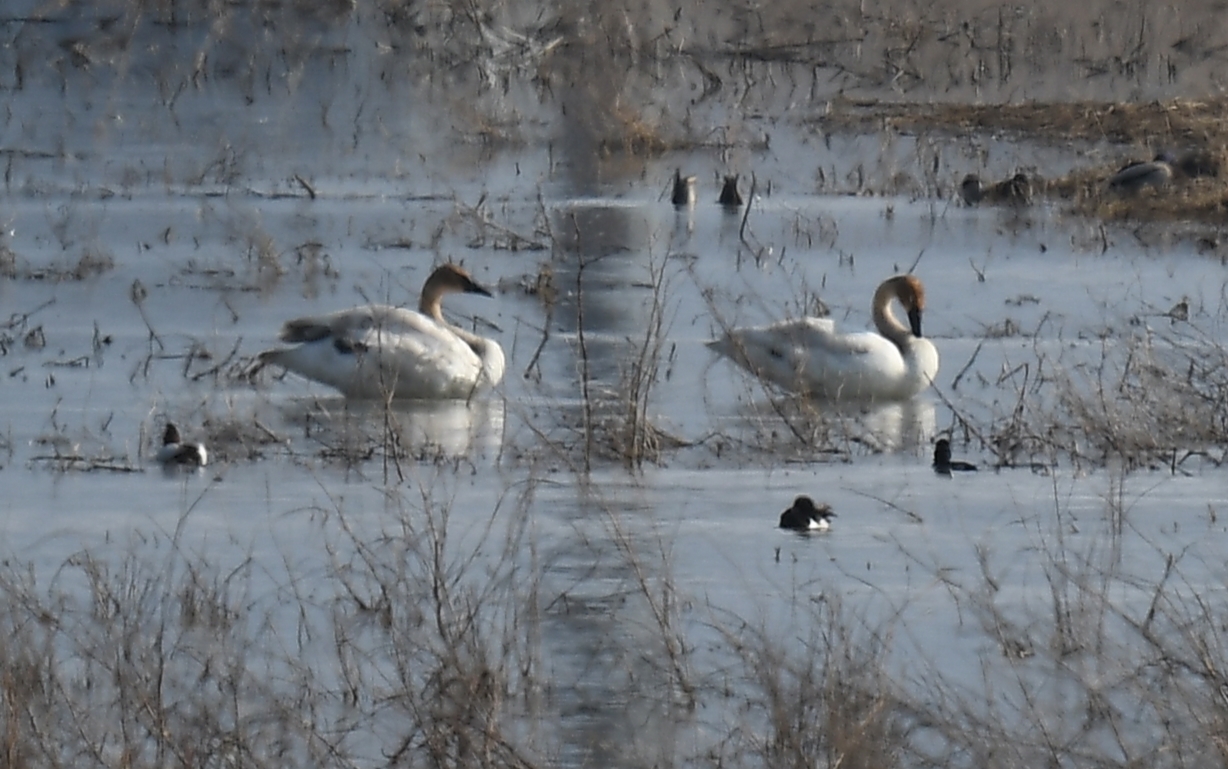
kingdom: Animalia
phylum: Chordata
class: Aves
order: Anseriformes
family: Anatidae
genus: Cygnus
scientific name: Cygnus buccinator
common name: Trumpeter swan
